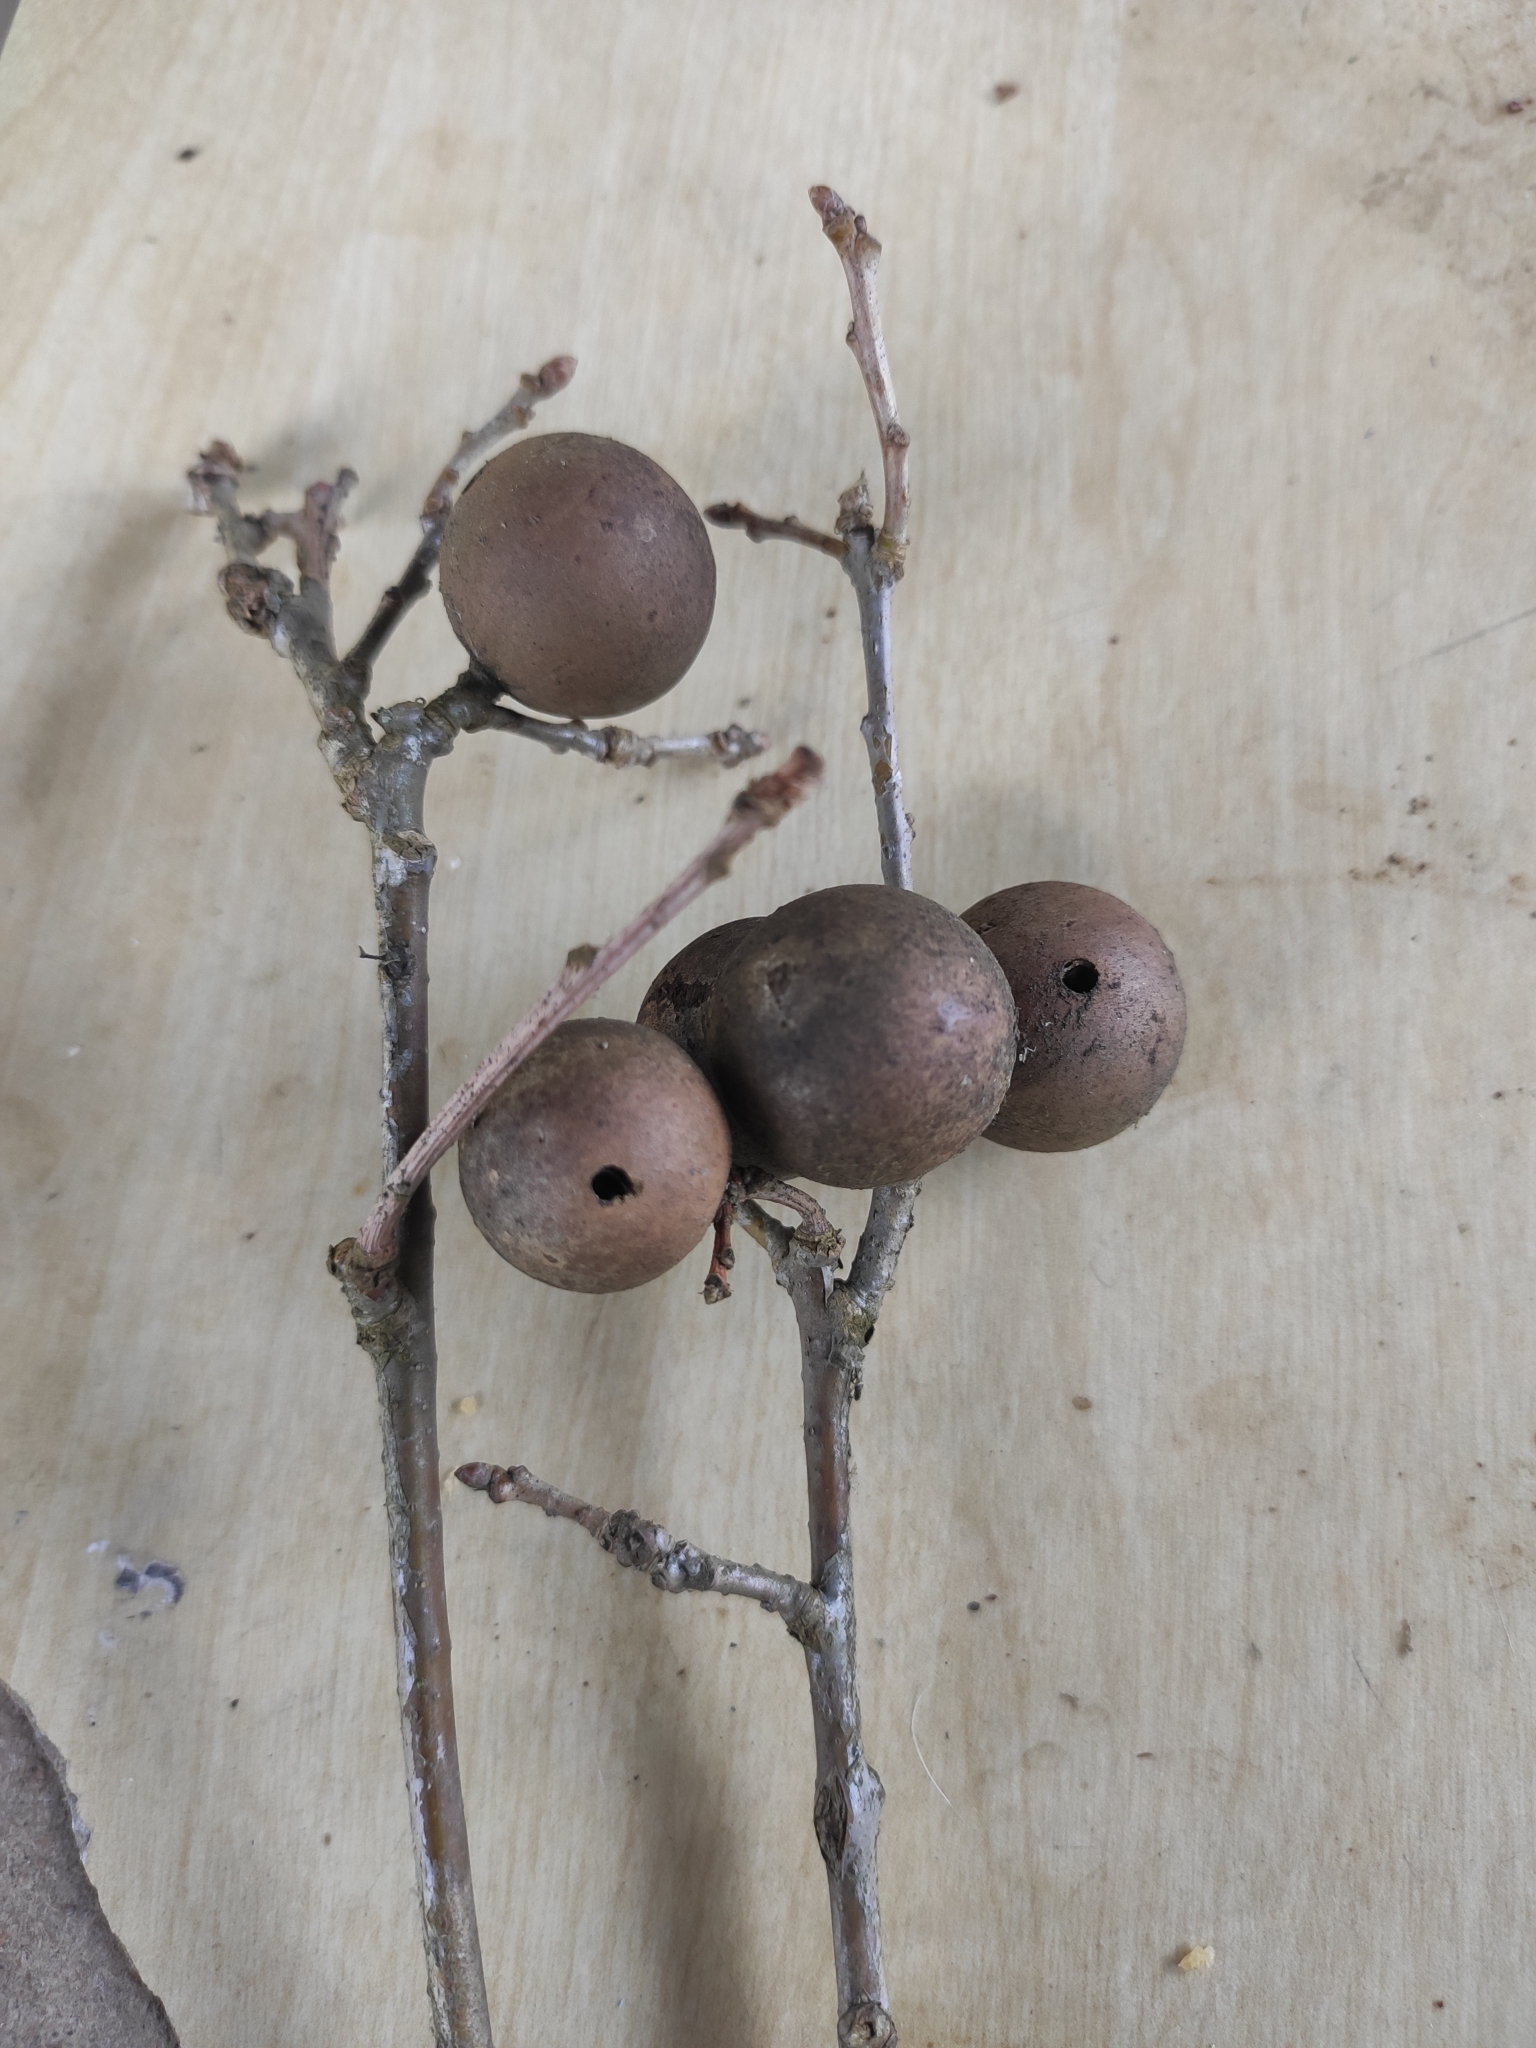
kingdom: Animalia
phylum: Arthropoda
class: Insecta
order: Hymenoptera
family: Cynipidae
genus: Andricus
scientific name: Andricus kollari
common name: Marble gall
